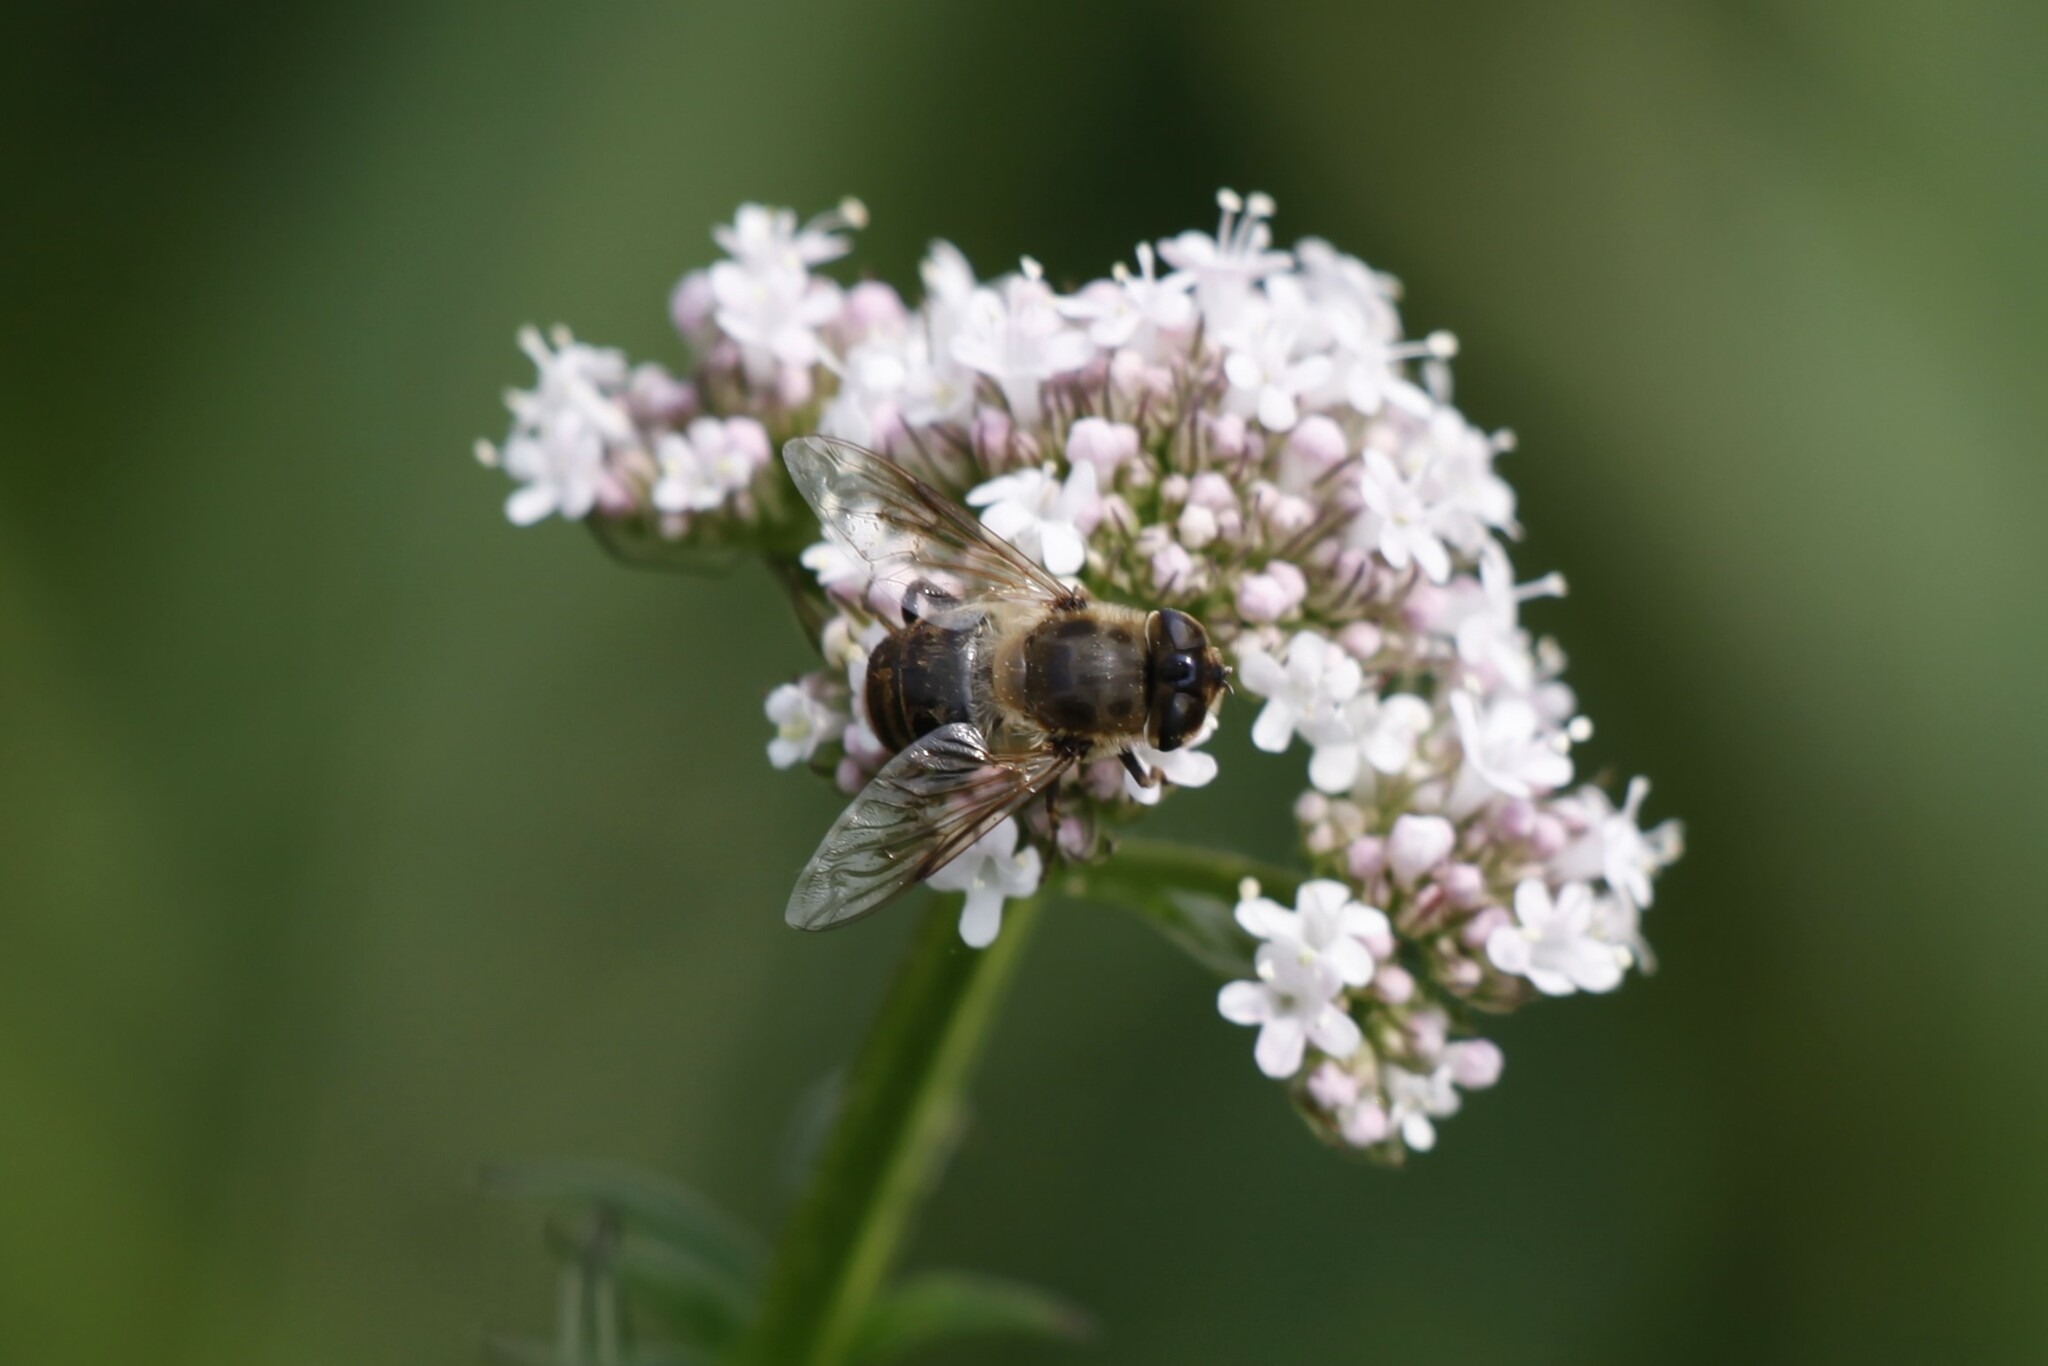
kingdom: Animalia
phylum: Arthropoda
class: Insecta
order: Diptera
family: Syrphidae
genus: Eristalis
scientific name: Eristalis tenax
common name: Drone fly
